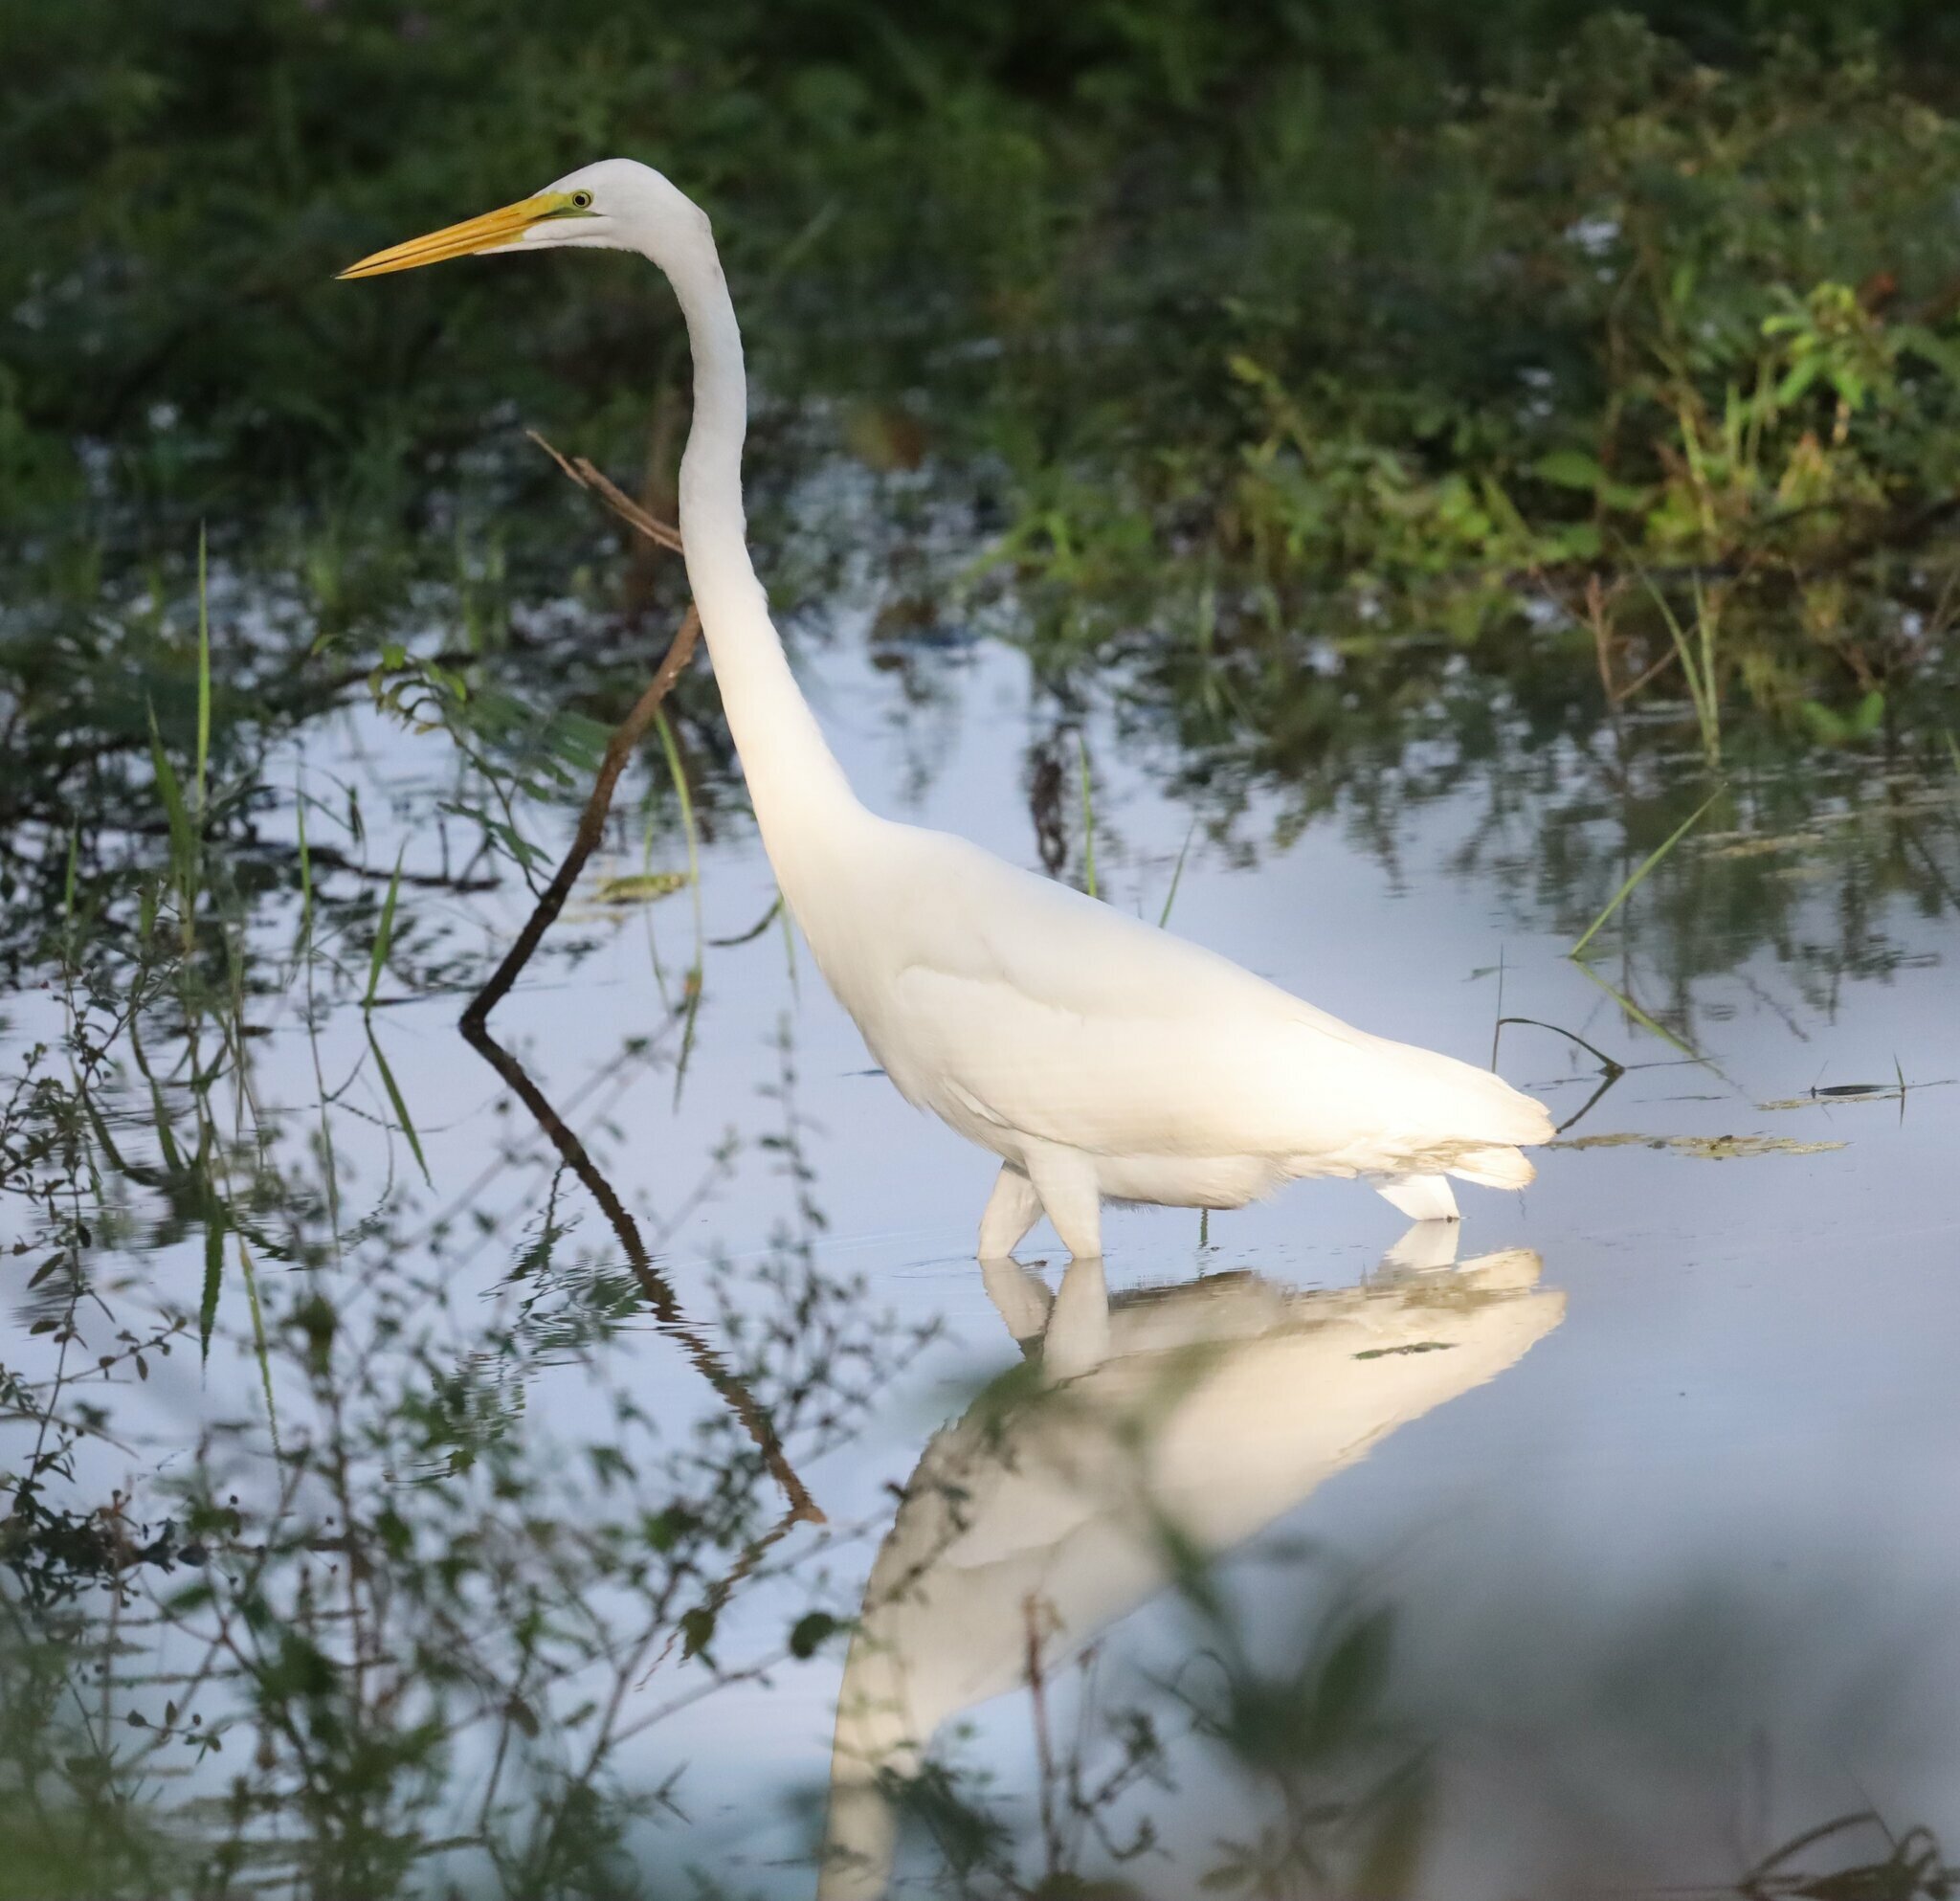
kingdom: Animalia
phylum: Chordata
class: Aves
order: Pelecaniformes
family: Ardeidae
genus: Ardea
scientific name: Ardea alba
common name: Great egret
